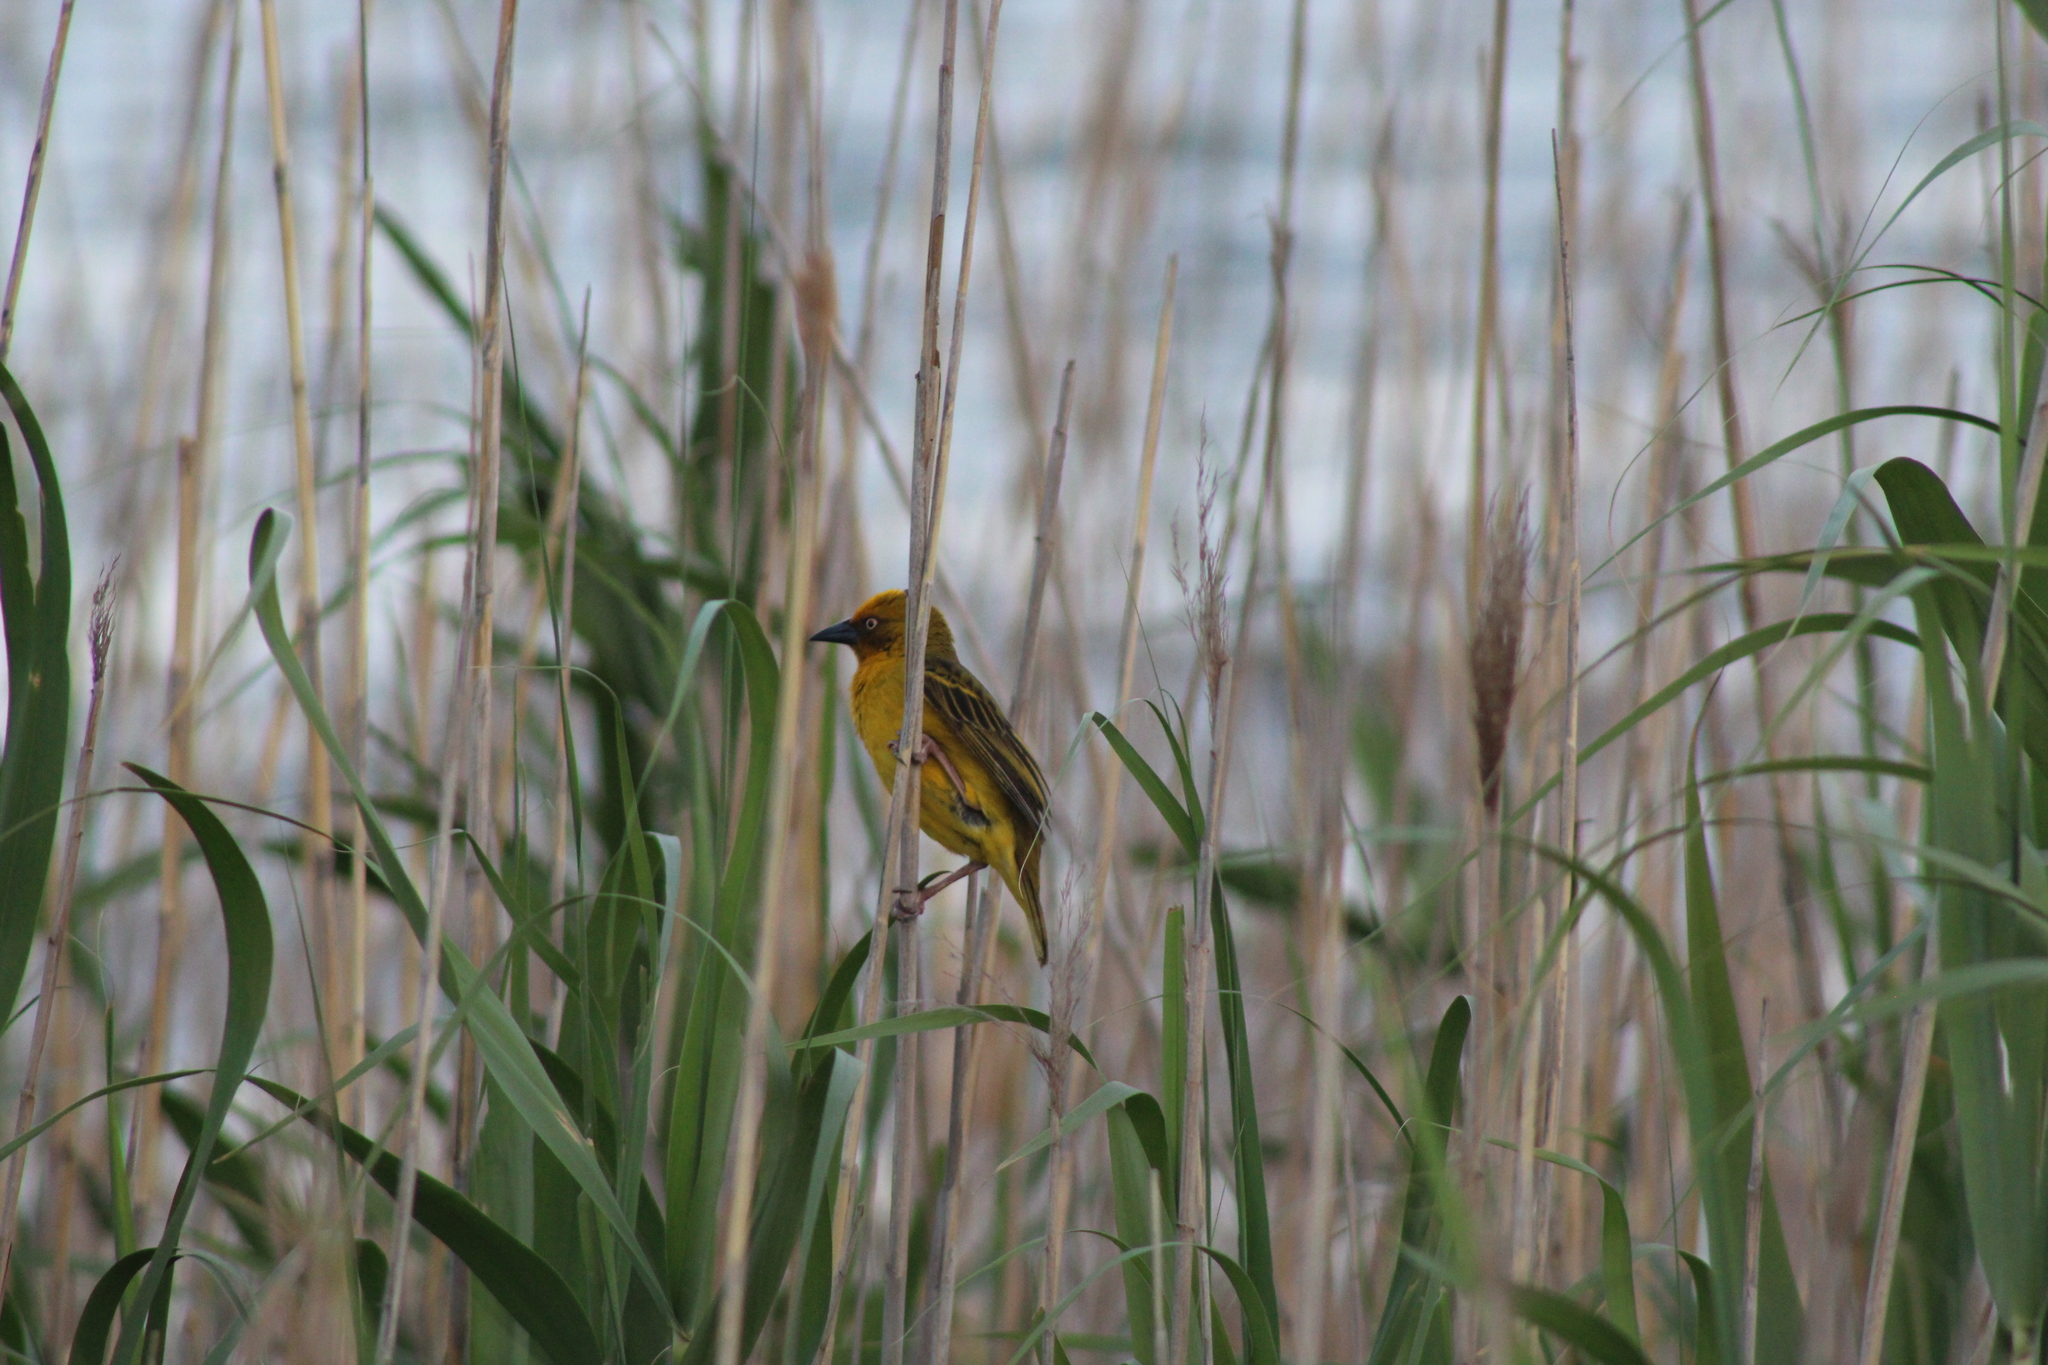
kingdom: Animalia
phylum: Chordata
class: Aves
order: Passeriformes
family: Ploceidae
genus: Ploceus
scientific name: Ploceus capensis
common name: Cape weaver
